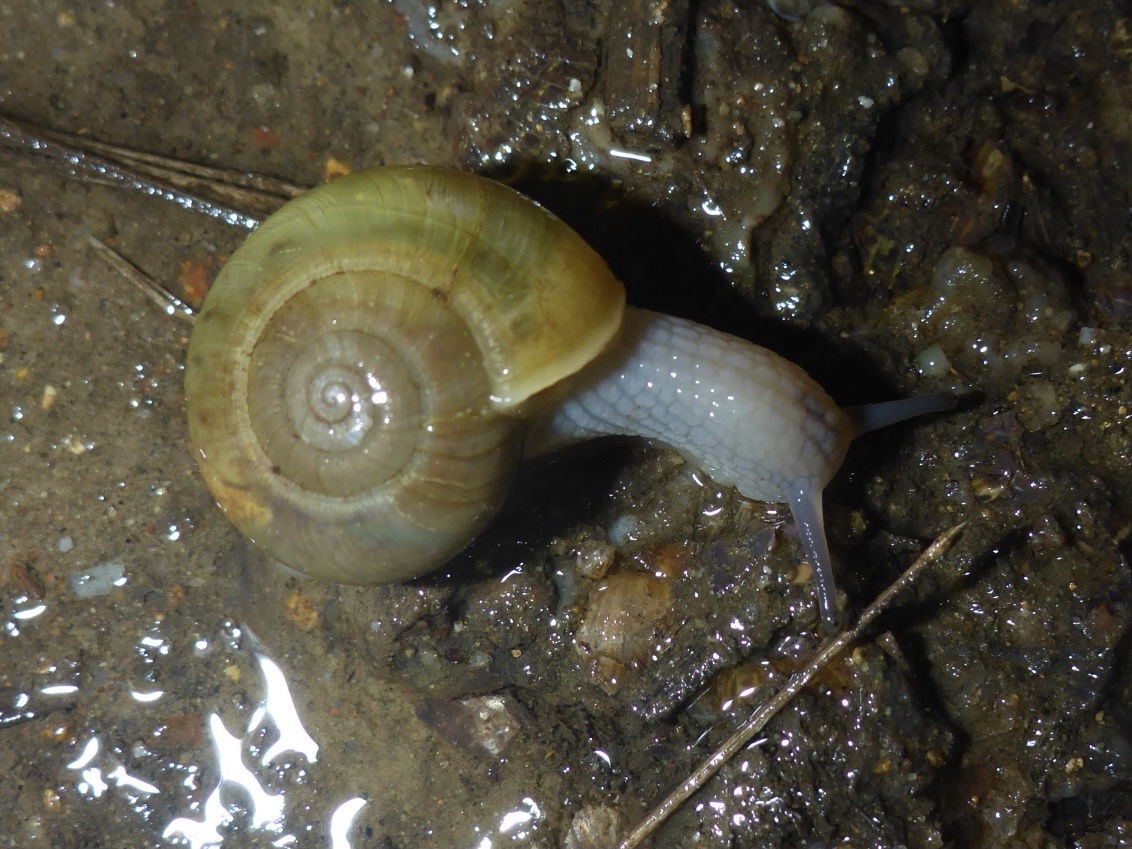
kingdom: Animalia
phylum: Mollusca
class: Gastropoda
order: Stylommatophora
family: Haplotrematidae
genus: Haplotrema
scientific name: Haplotrema minimum
